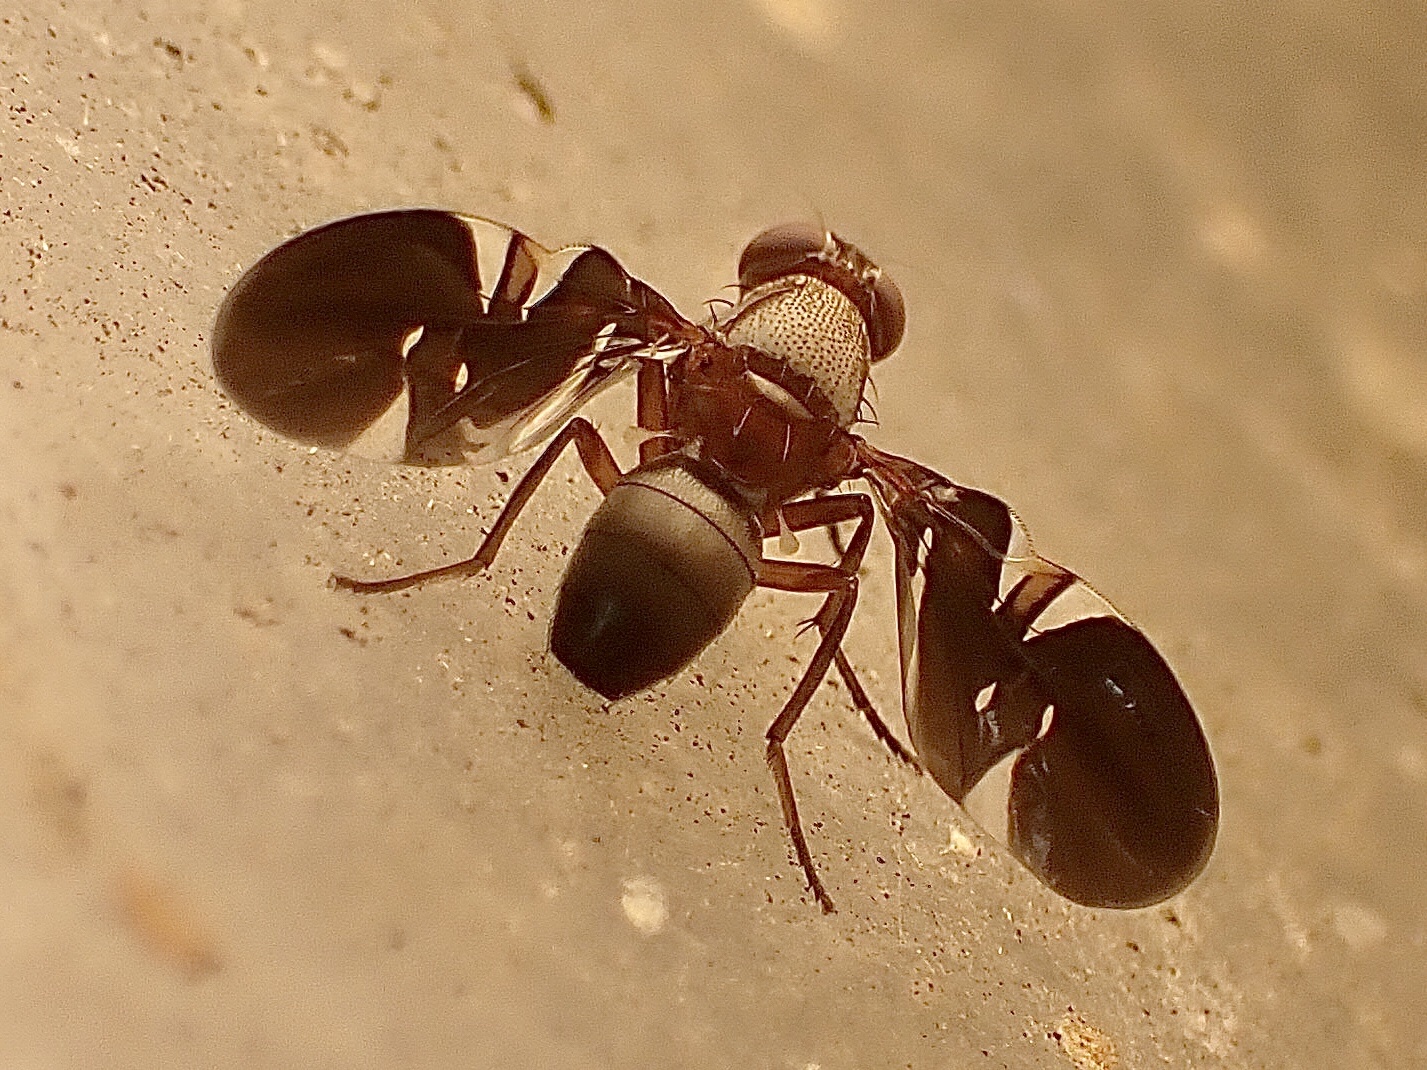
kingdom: Animalia
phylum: Arthropoda
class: Insecta
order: Diptera
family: Ulidiidae
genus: Delphinia
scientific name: Delphinia picta
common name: Common picture-winged fly
